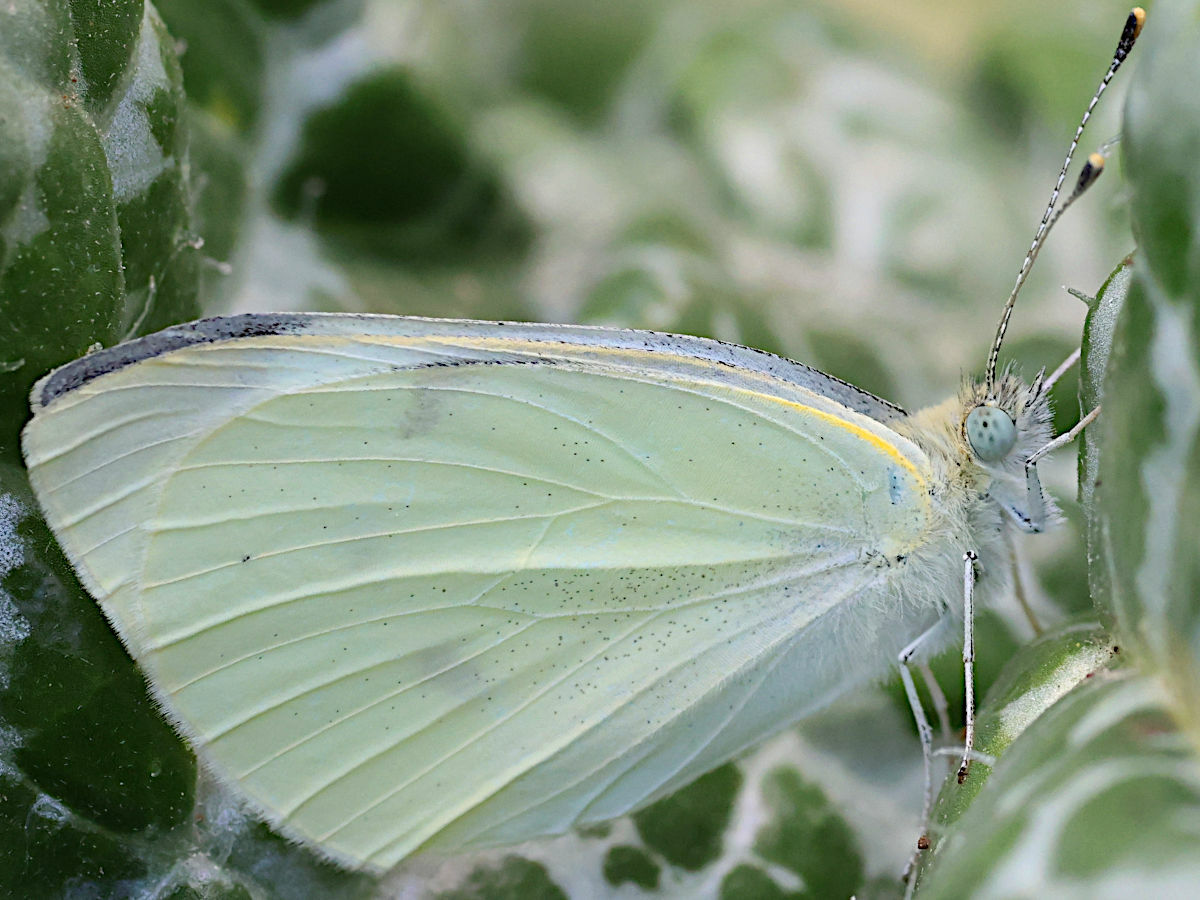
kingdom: Animalia
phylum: Arthropoda
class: Insecta
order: Lepidoptera
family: Pieridae
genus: Pieris
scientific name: Pieris rapae
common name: Small white
